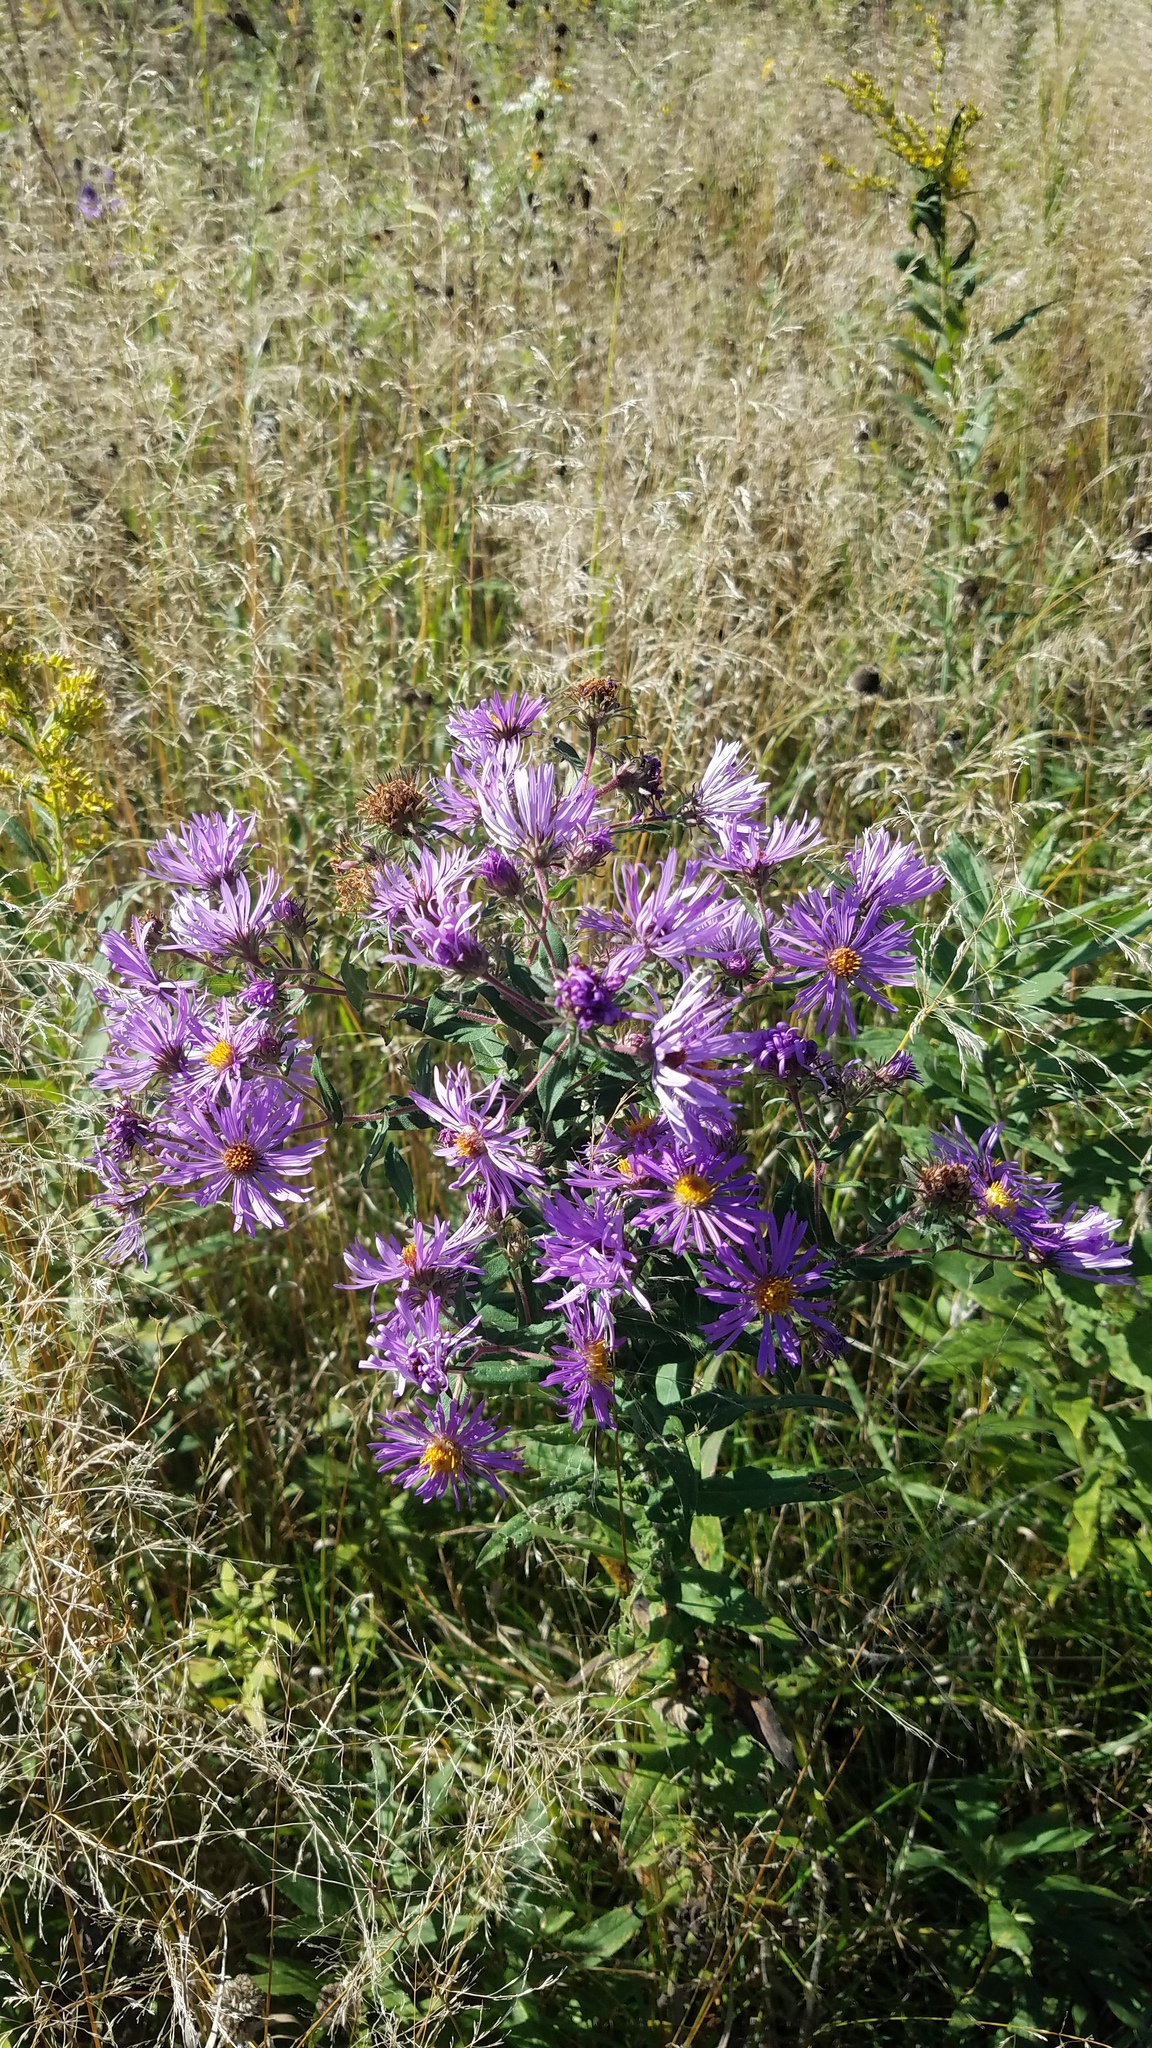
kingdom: Plantae
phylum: Tracheophyta
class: Magnoliopsida
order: Asterales
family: Asteraceae
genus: Symphyotrichum
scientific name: Symphyotrichum novae-angliae
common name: Michaelmas daisy
